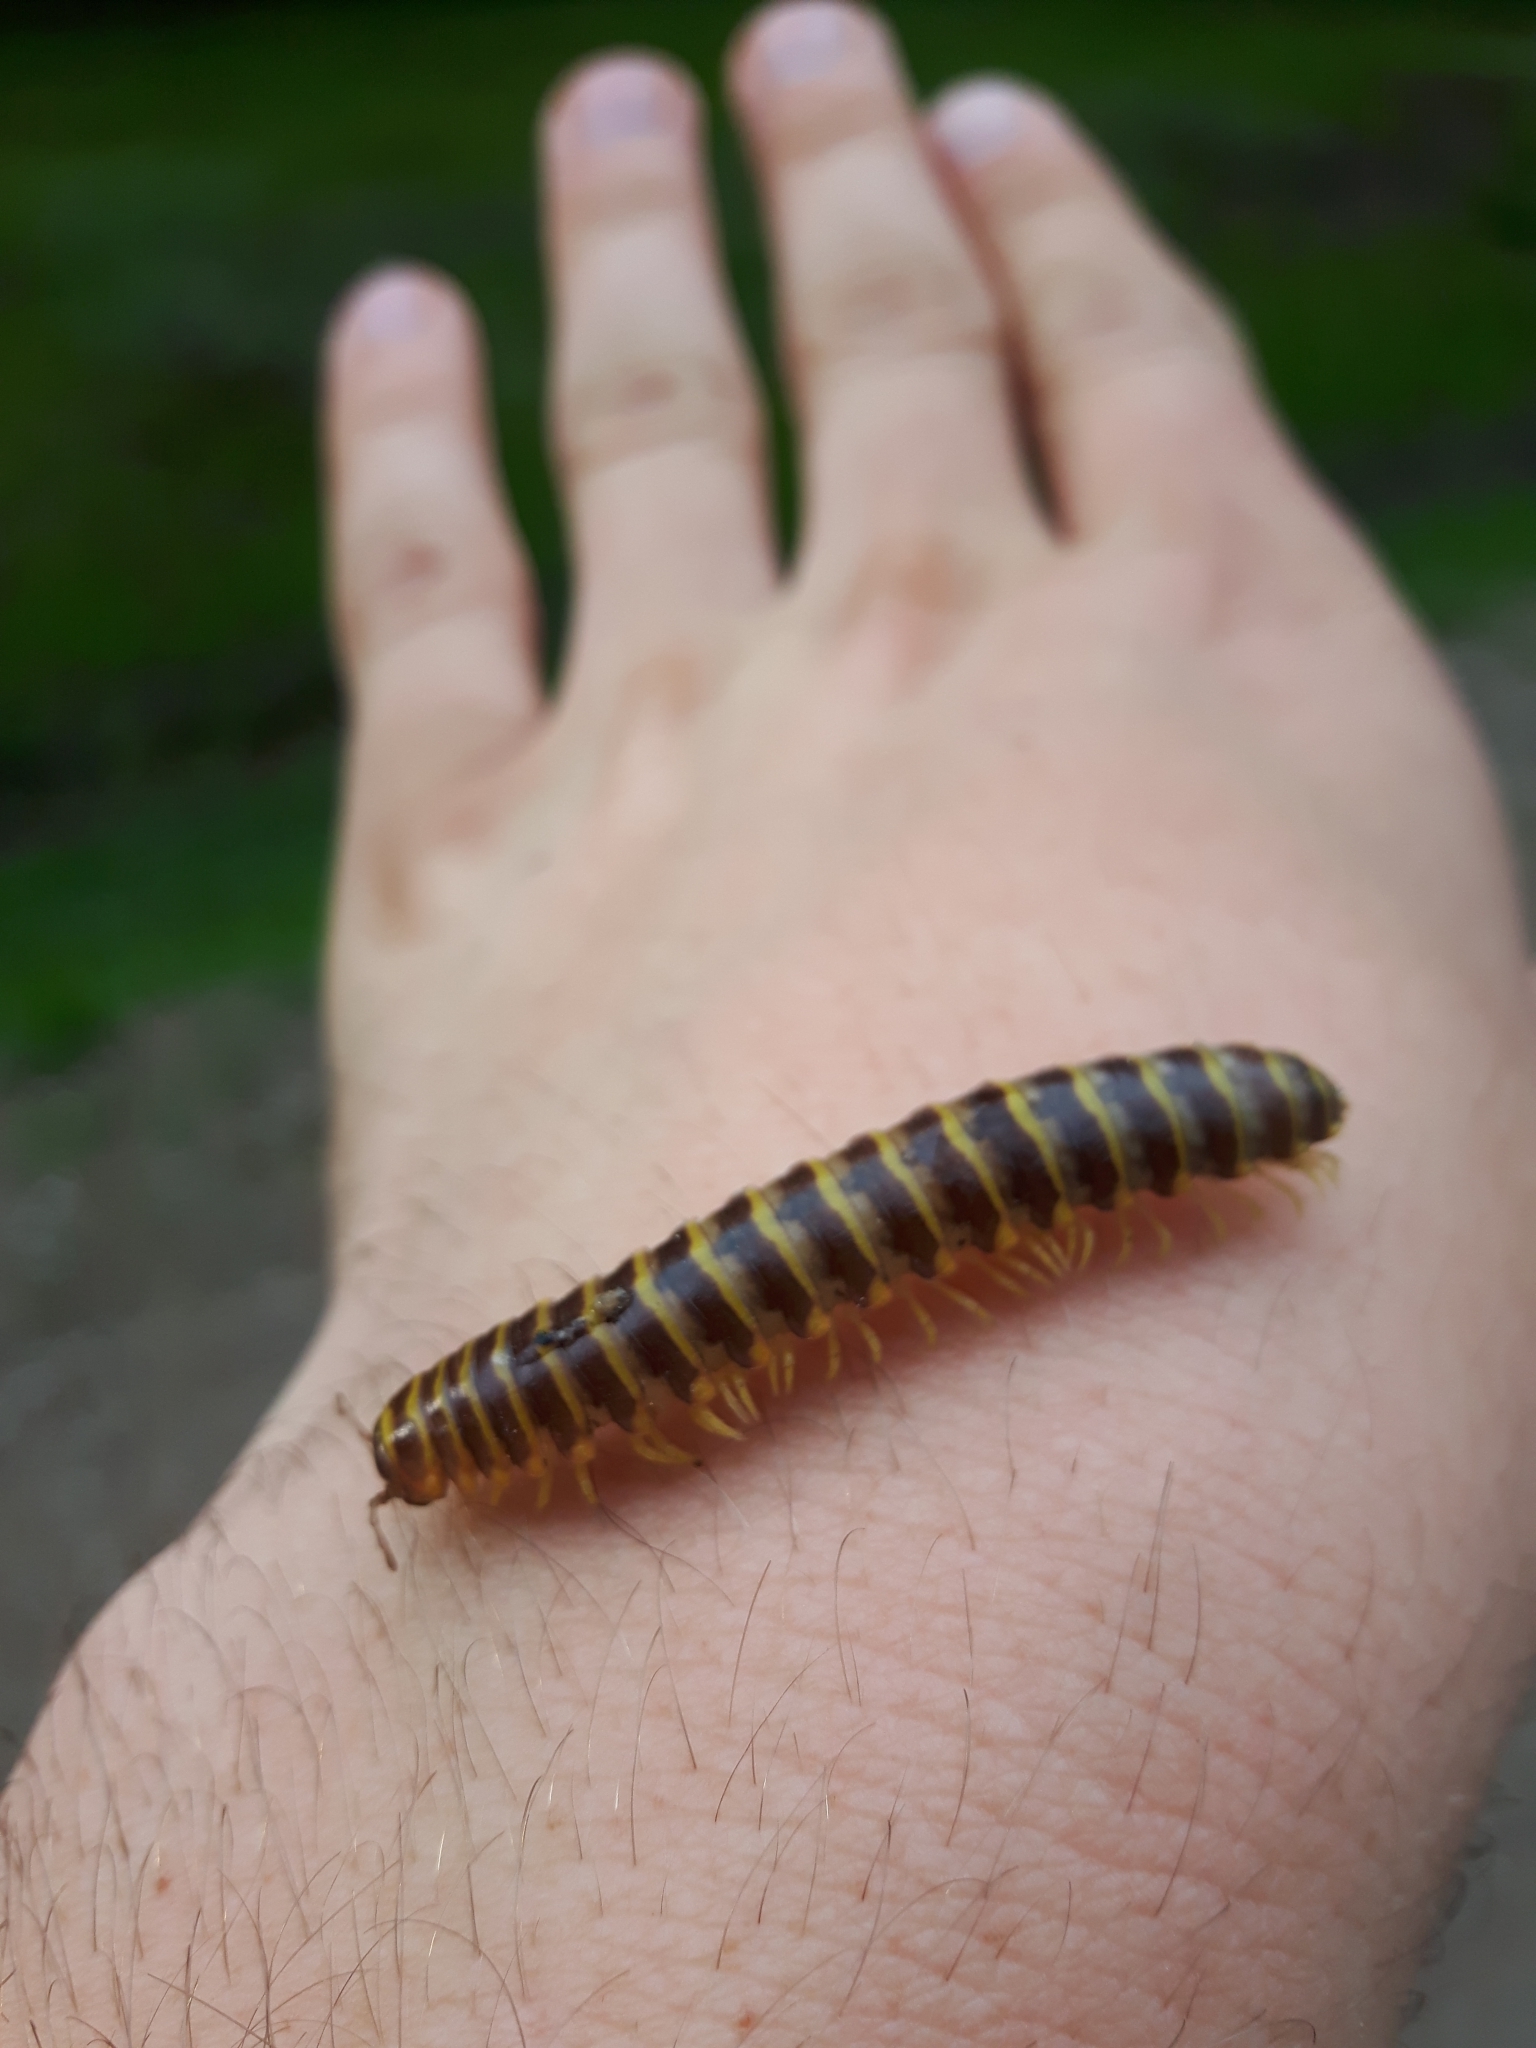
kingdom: Animalia
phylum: Arthropoda
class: Diplopoda
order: Polydesmida
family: Xystodesmidae
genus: Rudiloria
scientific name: Rudiloria trimaculata
